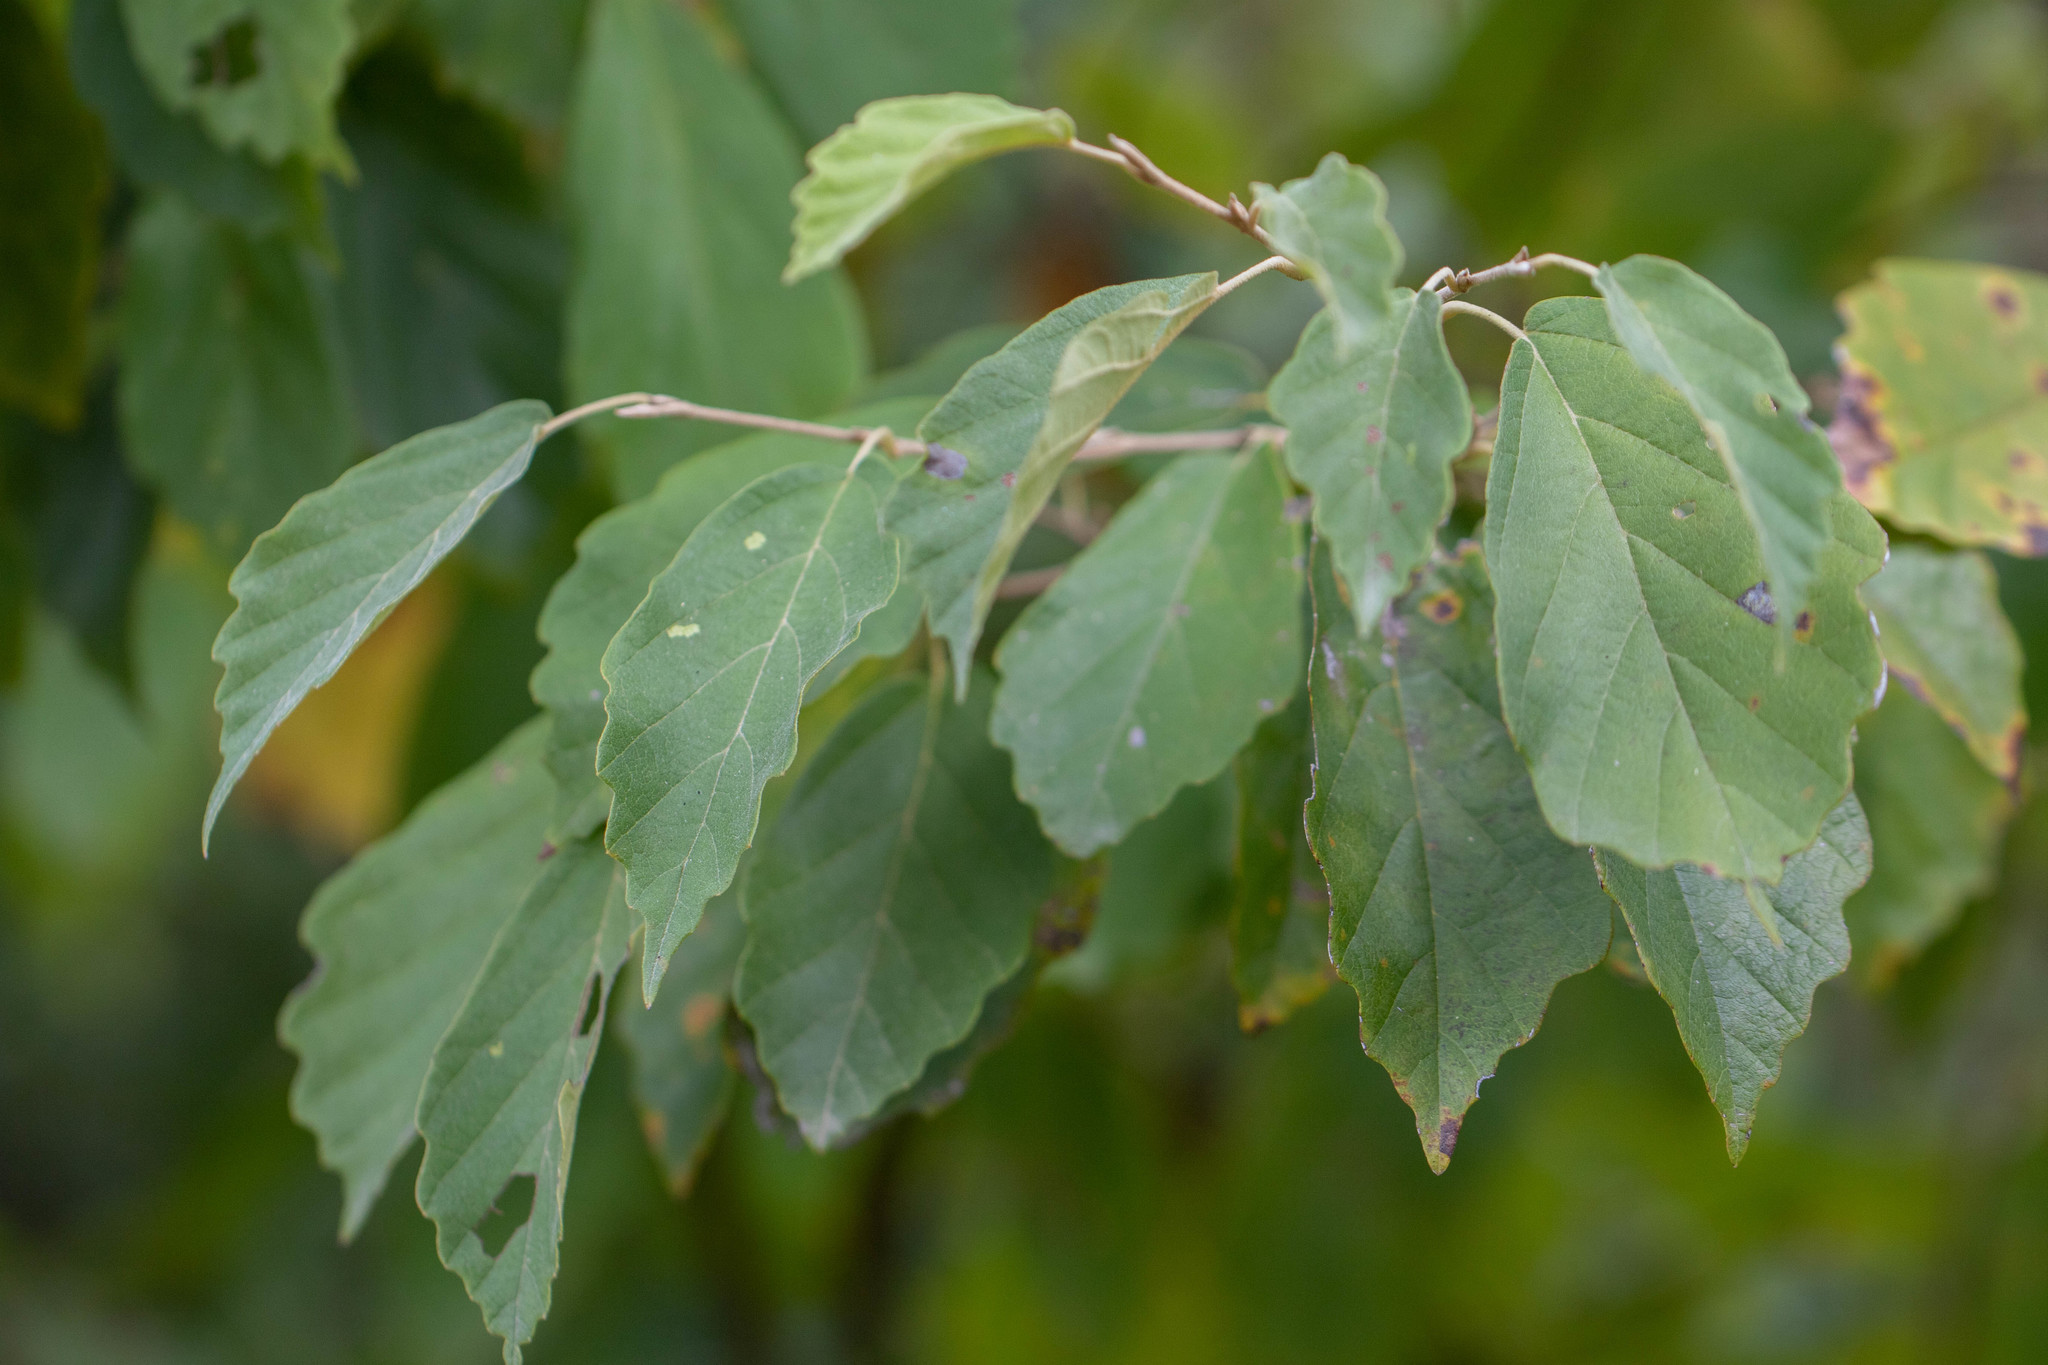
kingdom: Plantae
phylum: Tracheophyta
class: Magnoliopsida
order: Saxifragales
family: Hamamelidaceae
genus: Hamamelis
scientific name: Hamamelis virginiana
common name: Witch-hazel
